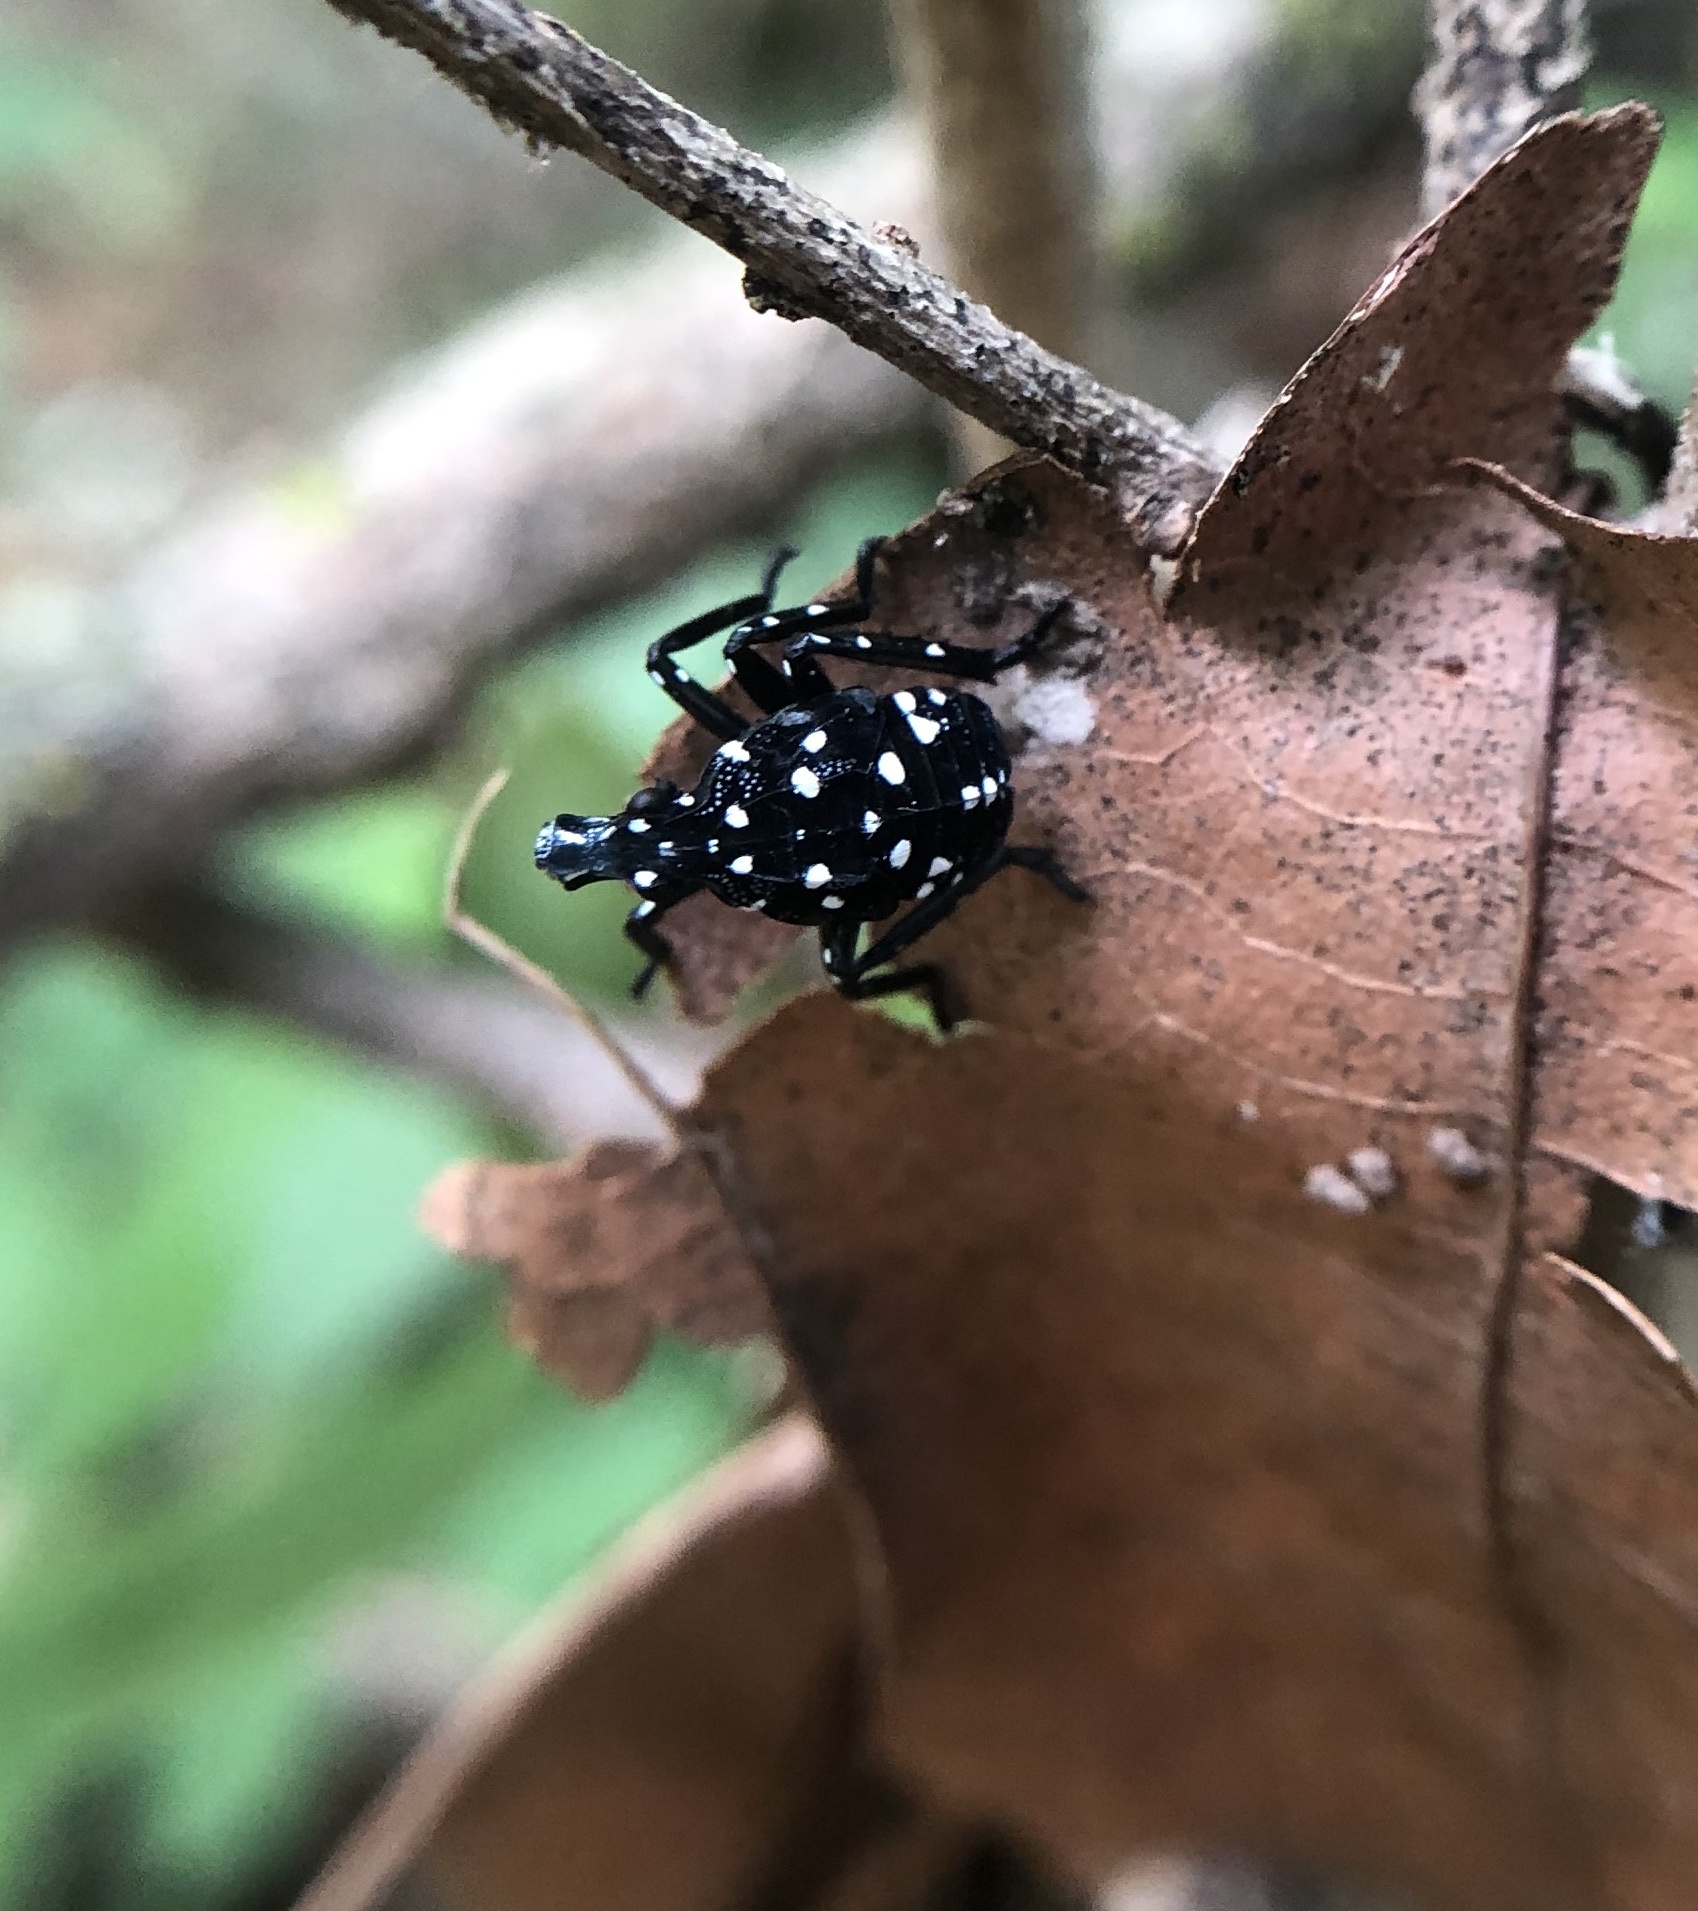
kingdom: Animalia
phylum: Arthropoda
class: Insecta
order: Hemiptera
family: Fulgoridae
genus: Lycorma
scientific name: Lycorma delicatula
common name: Spotted lanternfly
